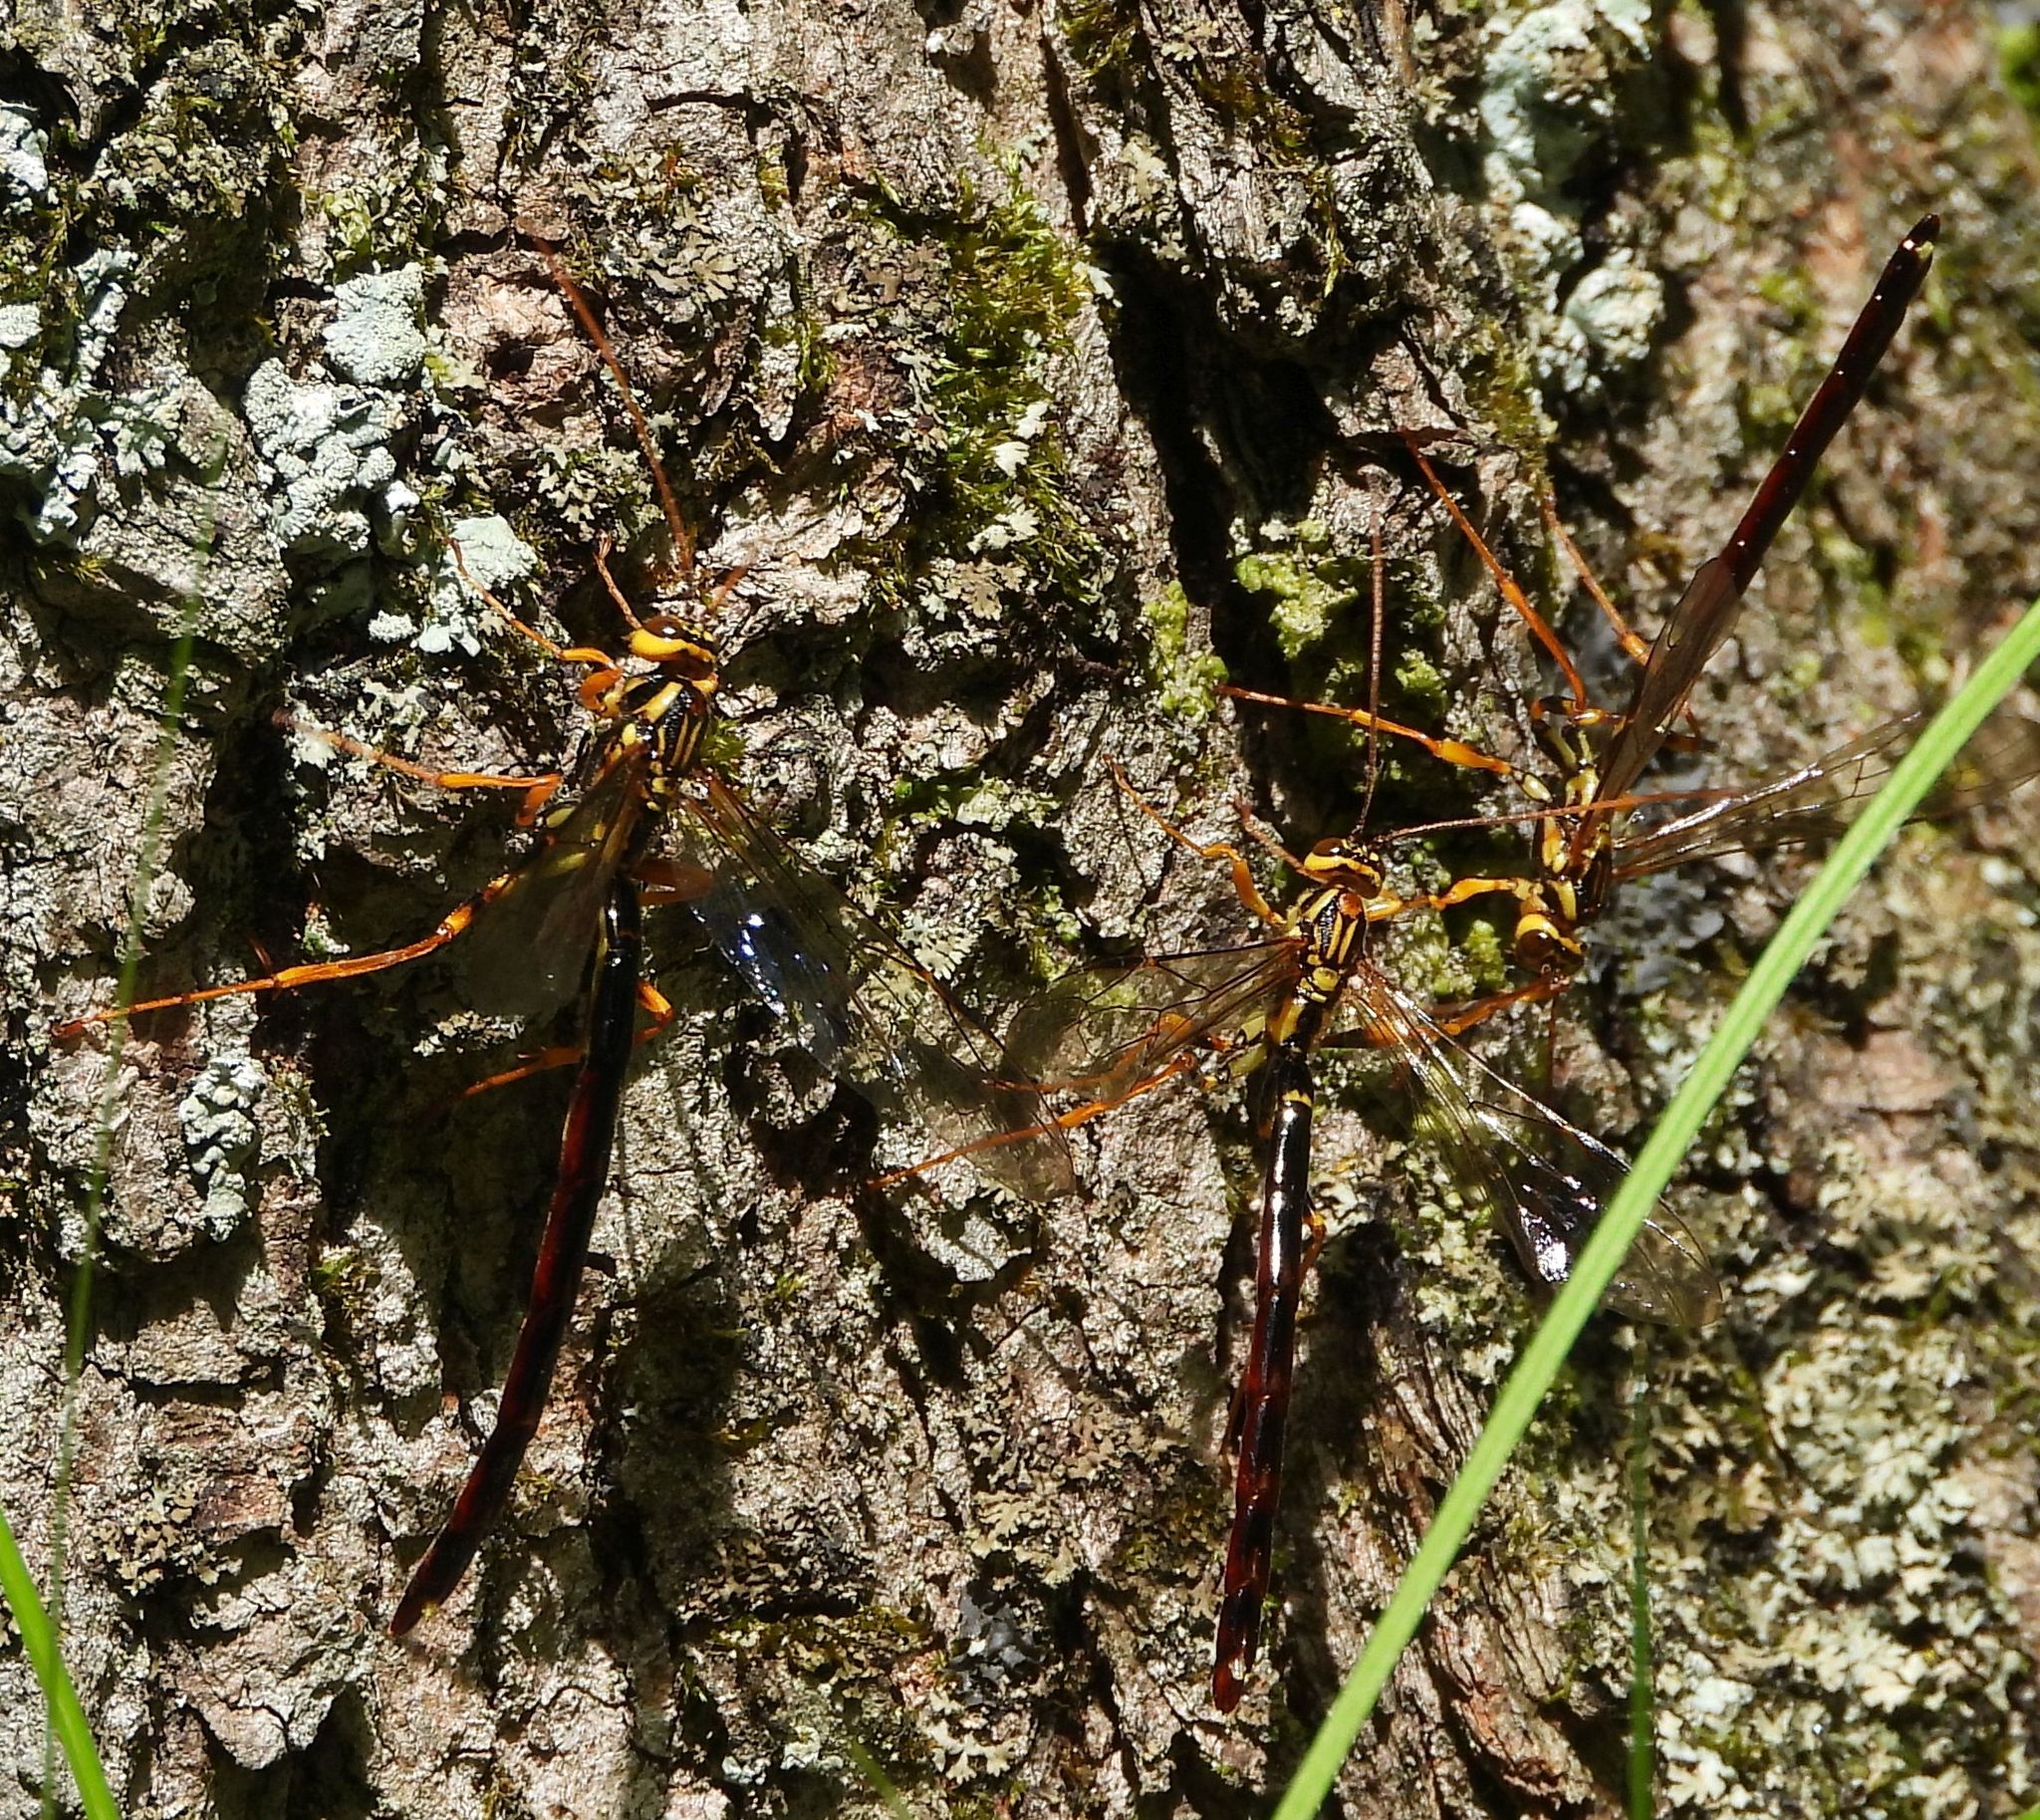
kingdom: Animalia
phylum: Arthropoda
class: Insecta
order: Hymenoptera
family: Ichneumonidae
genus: Megarhyssa
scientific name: Megarhyssa atrata
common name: Black giant ichneumonid wasp
